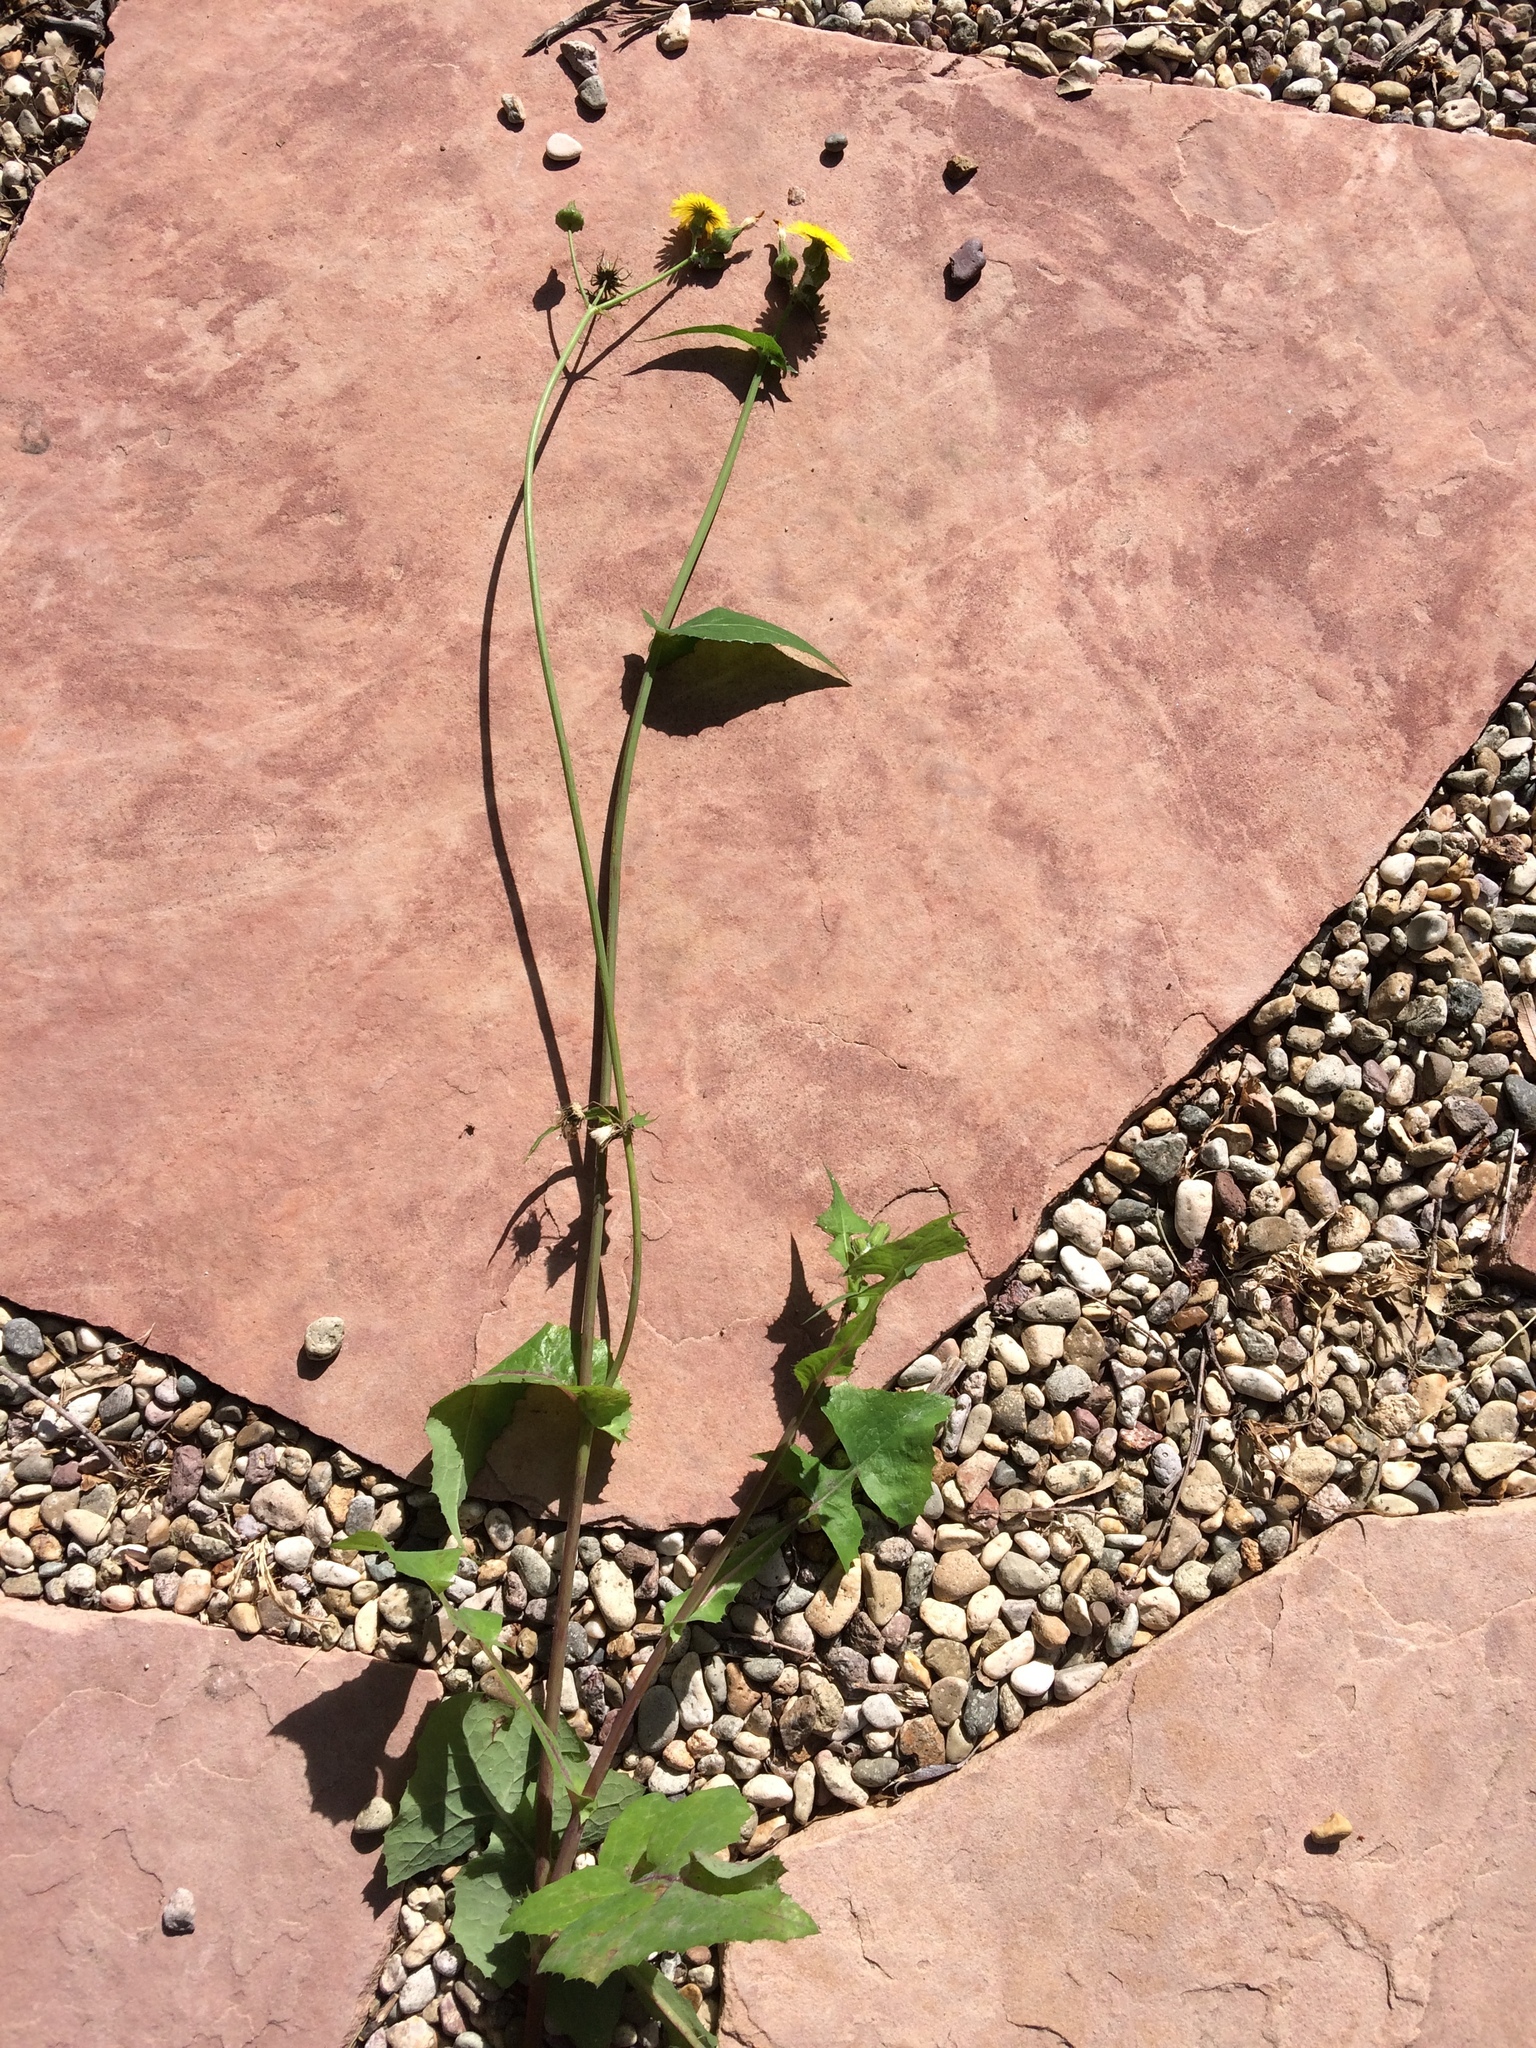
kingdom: Plantae
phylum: Tracheophyta
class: Magnoliopsida
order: Asterales
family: Asteraceae
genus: Sonchus
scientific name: Sonchus oleraceus
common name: Common sowthistle
